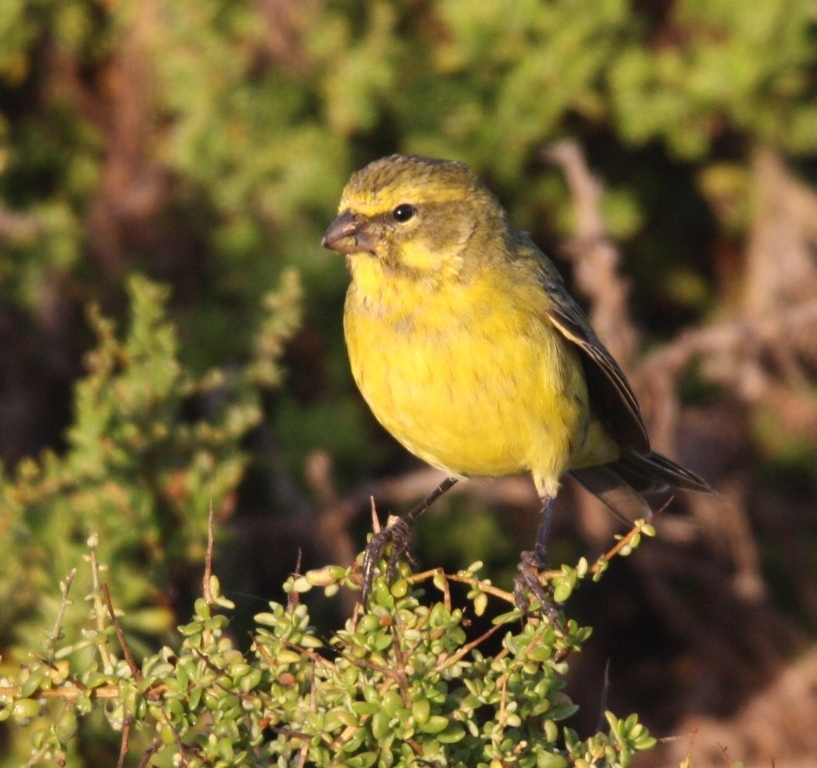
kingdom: Animalia
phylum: Chordata
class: Aves
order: Passeriformes
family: Fringillidae
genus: Crithagra
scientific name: Crithagra flaviventris
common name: Yellow canary
